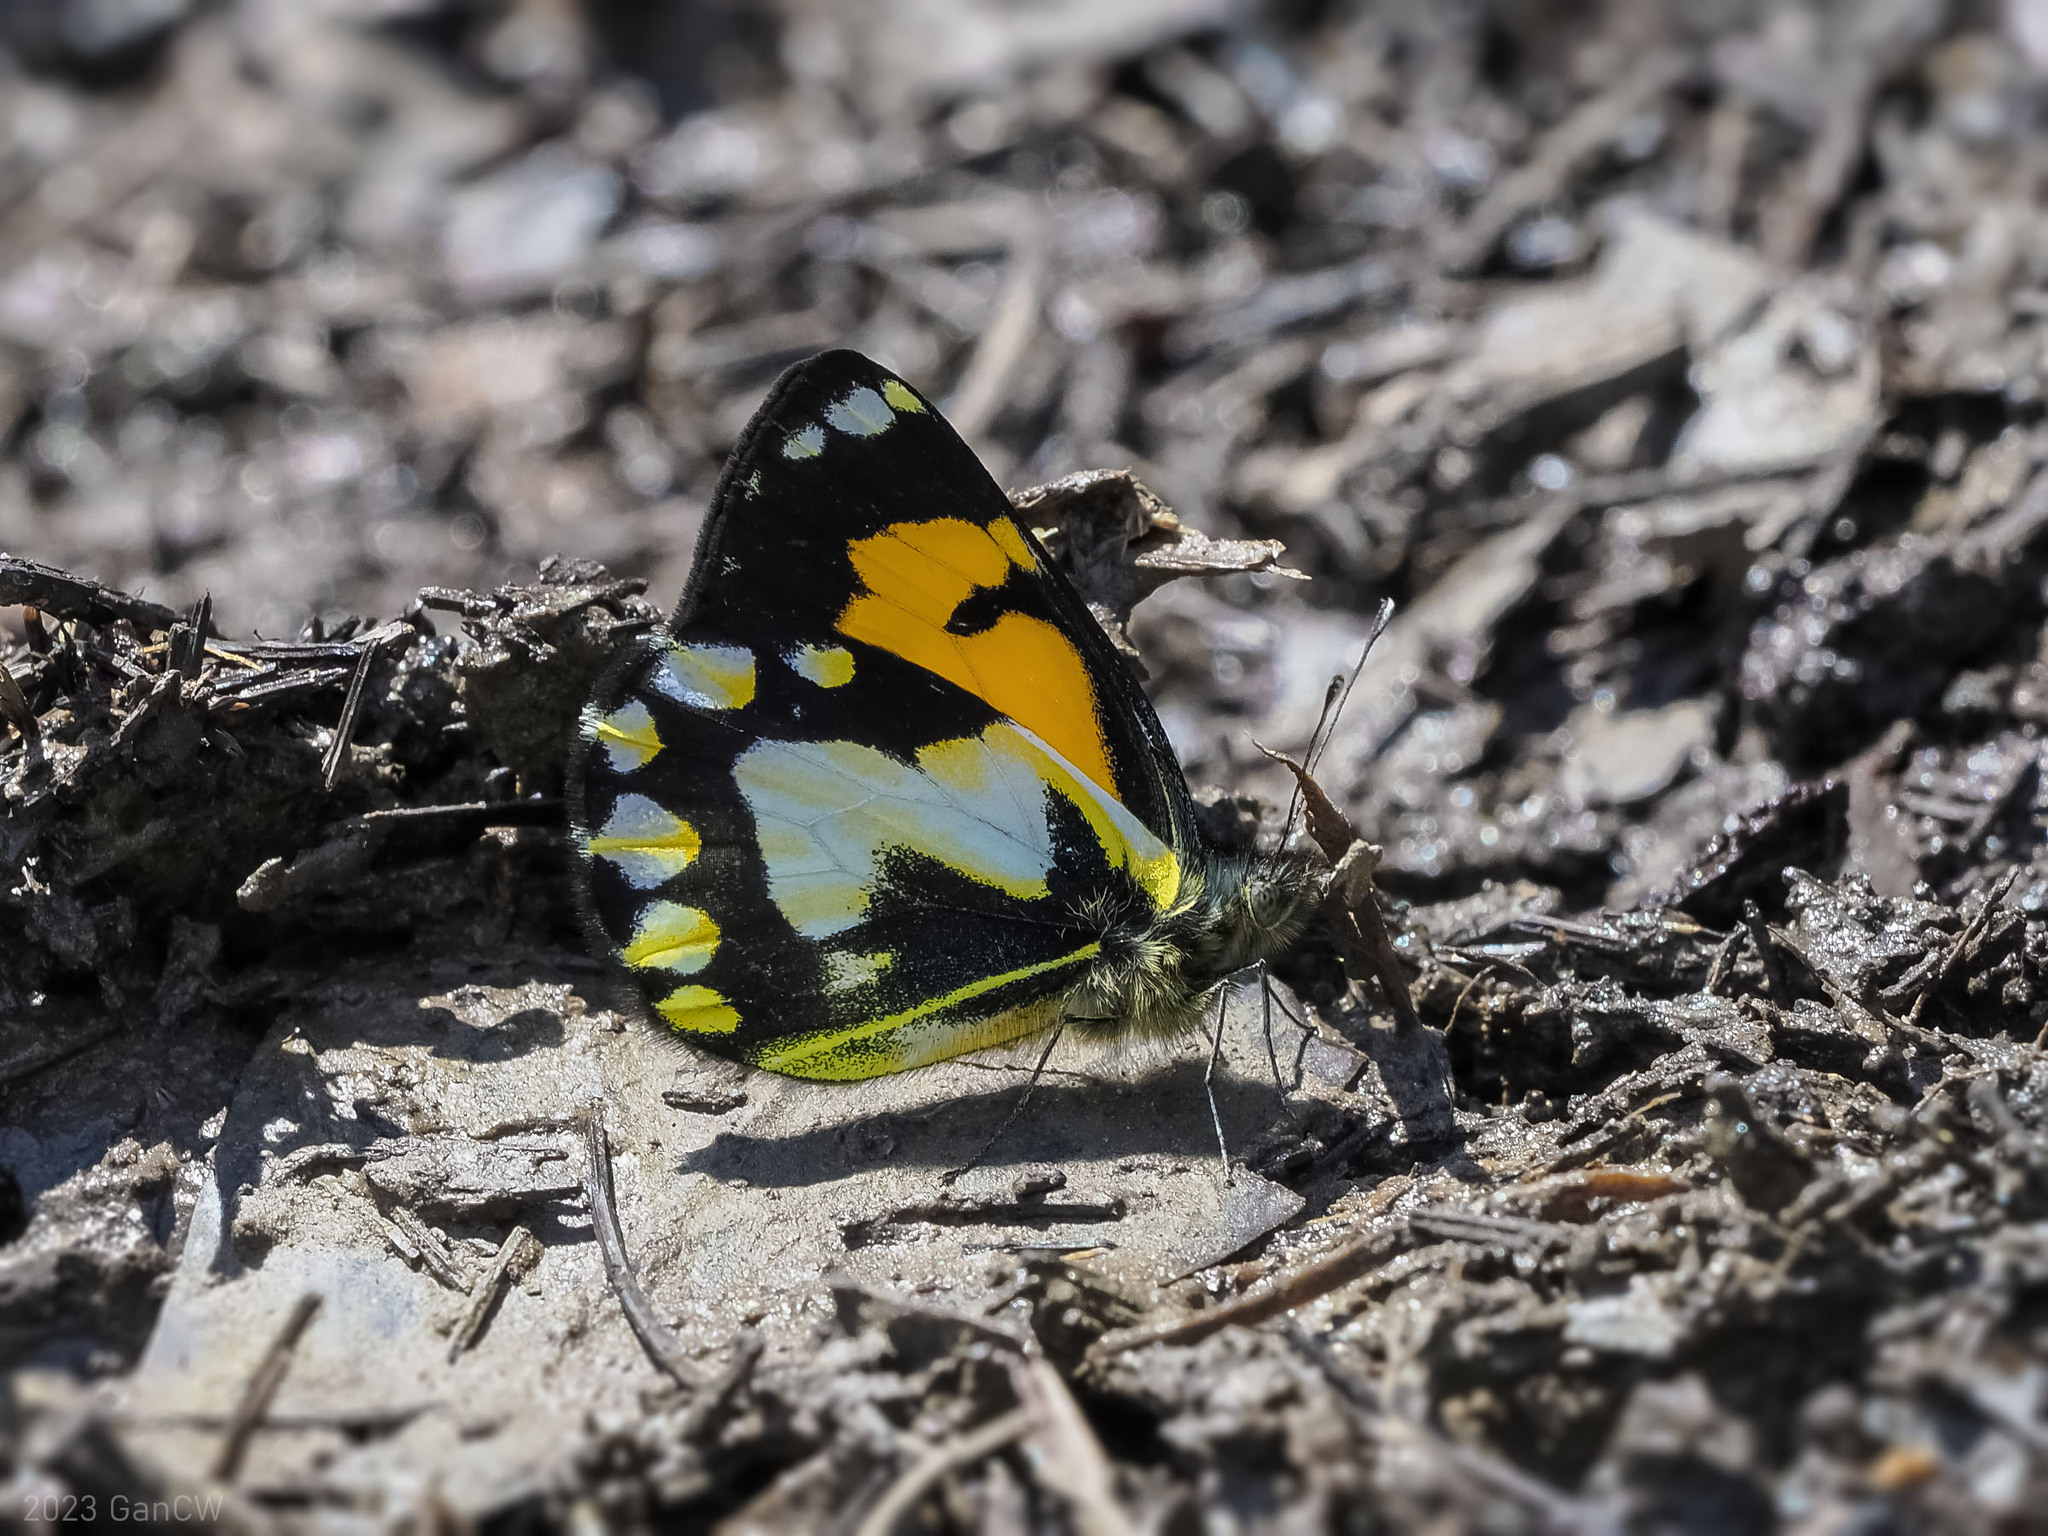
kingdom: Animalia
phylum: Arthropoda
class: Insecta
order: Lepidoptera
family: Pieridae
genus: Delias
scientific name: Delias
